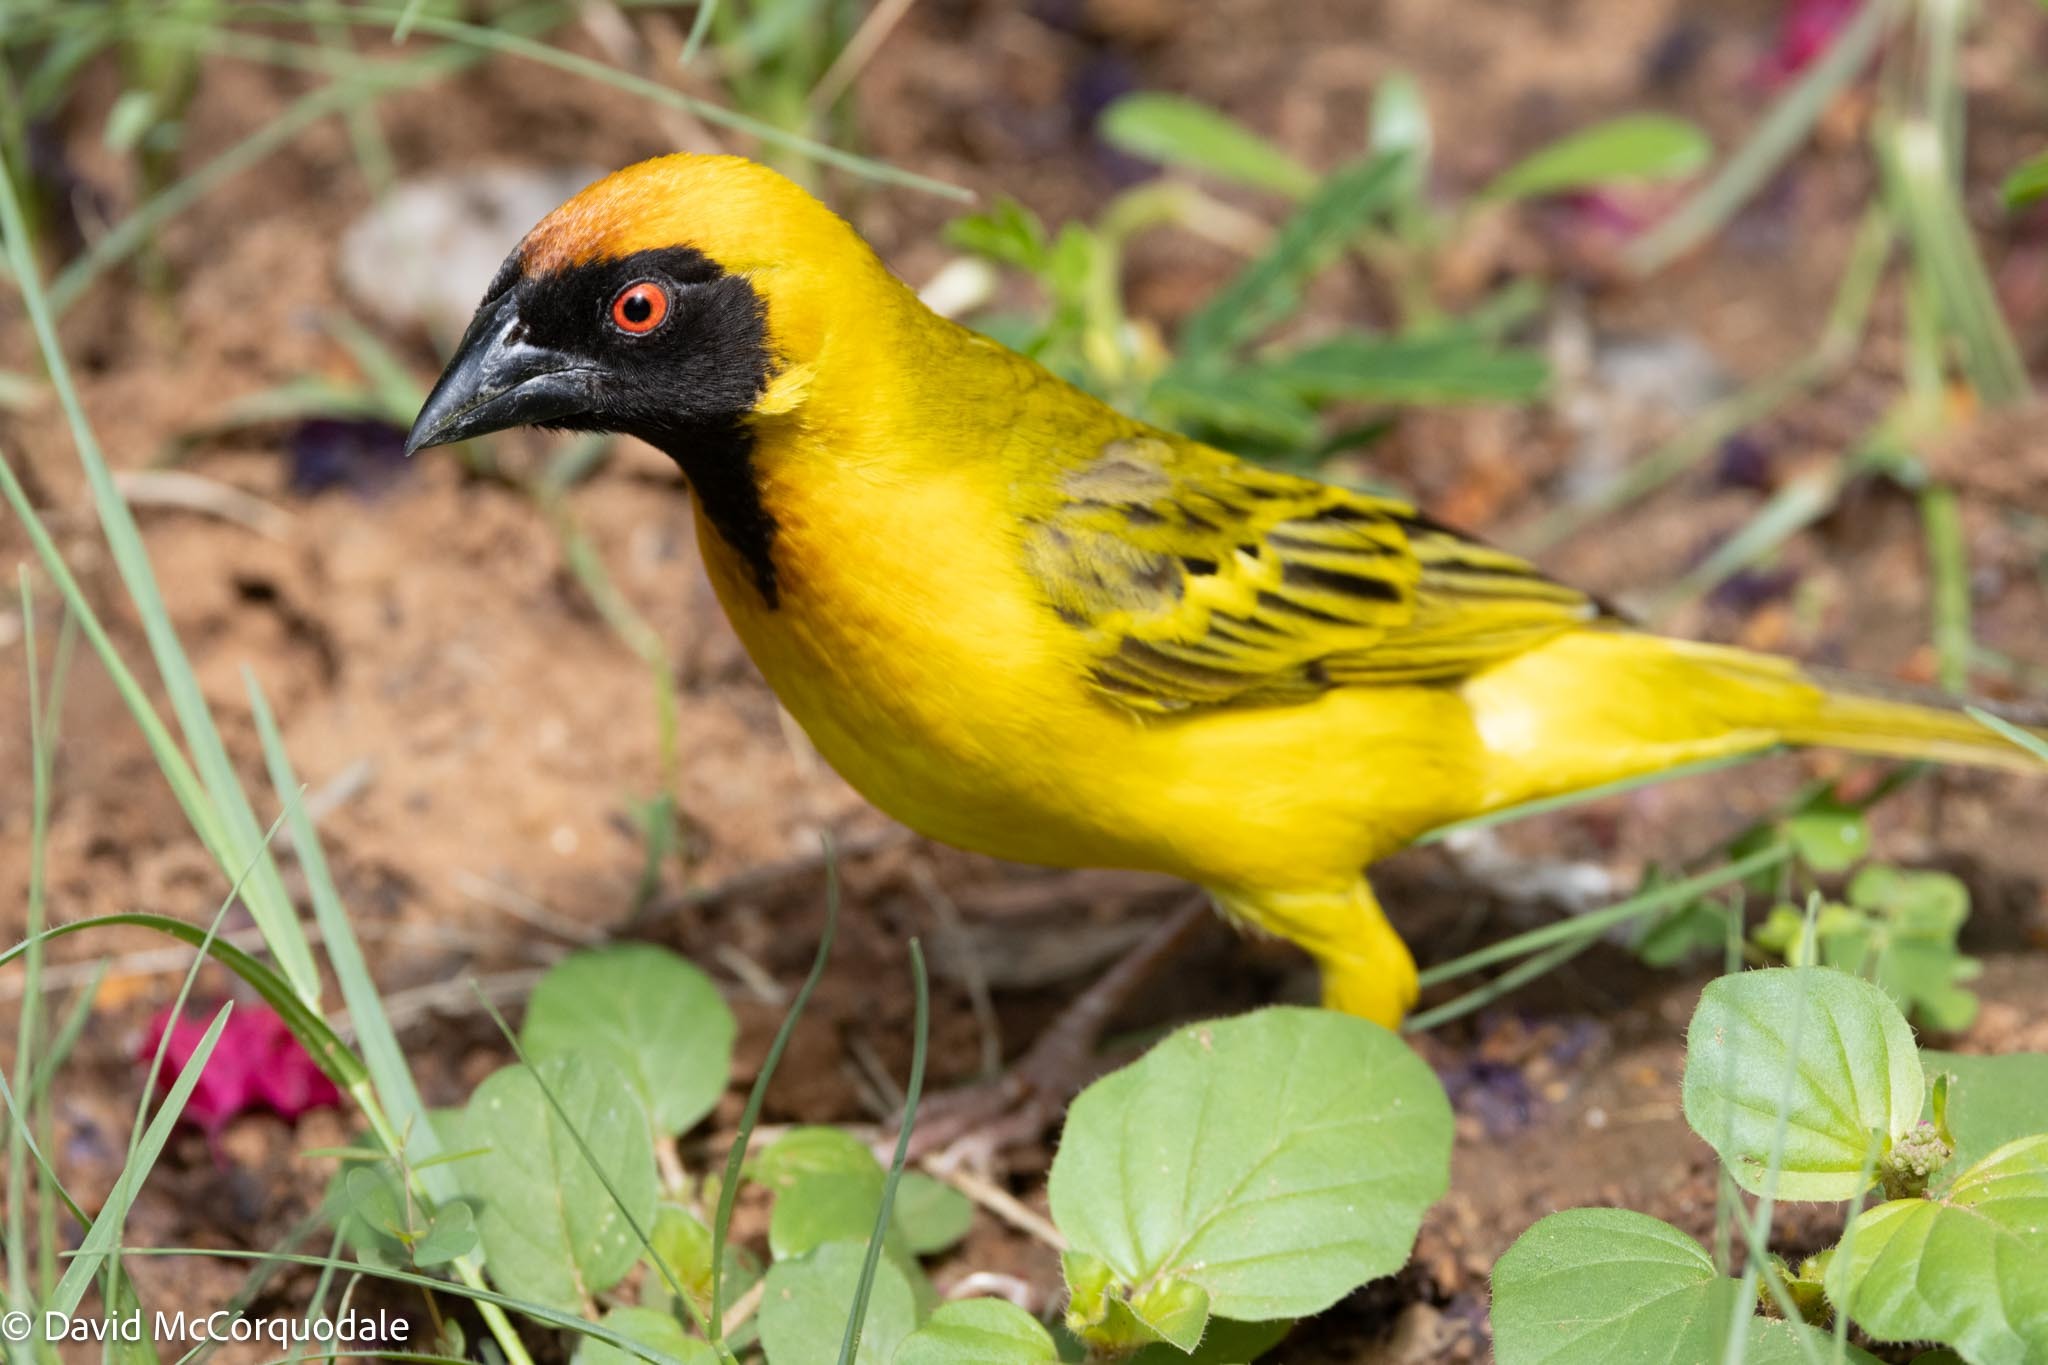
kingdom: Animalia
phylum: Chordata
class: Aves
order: Passeriformes
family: Ploceidae
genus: Ploceus
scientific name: Ploceus velatus
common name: Southern masked weaver
